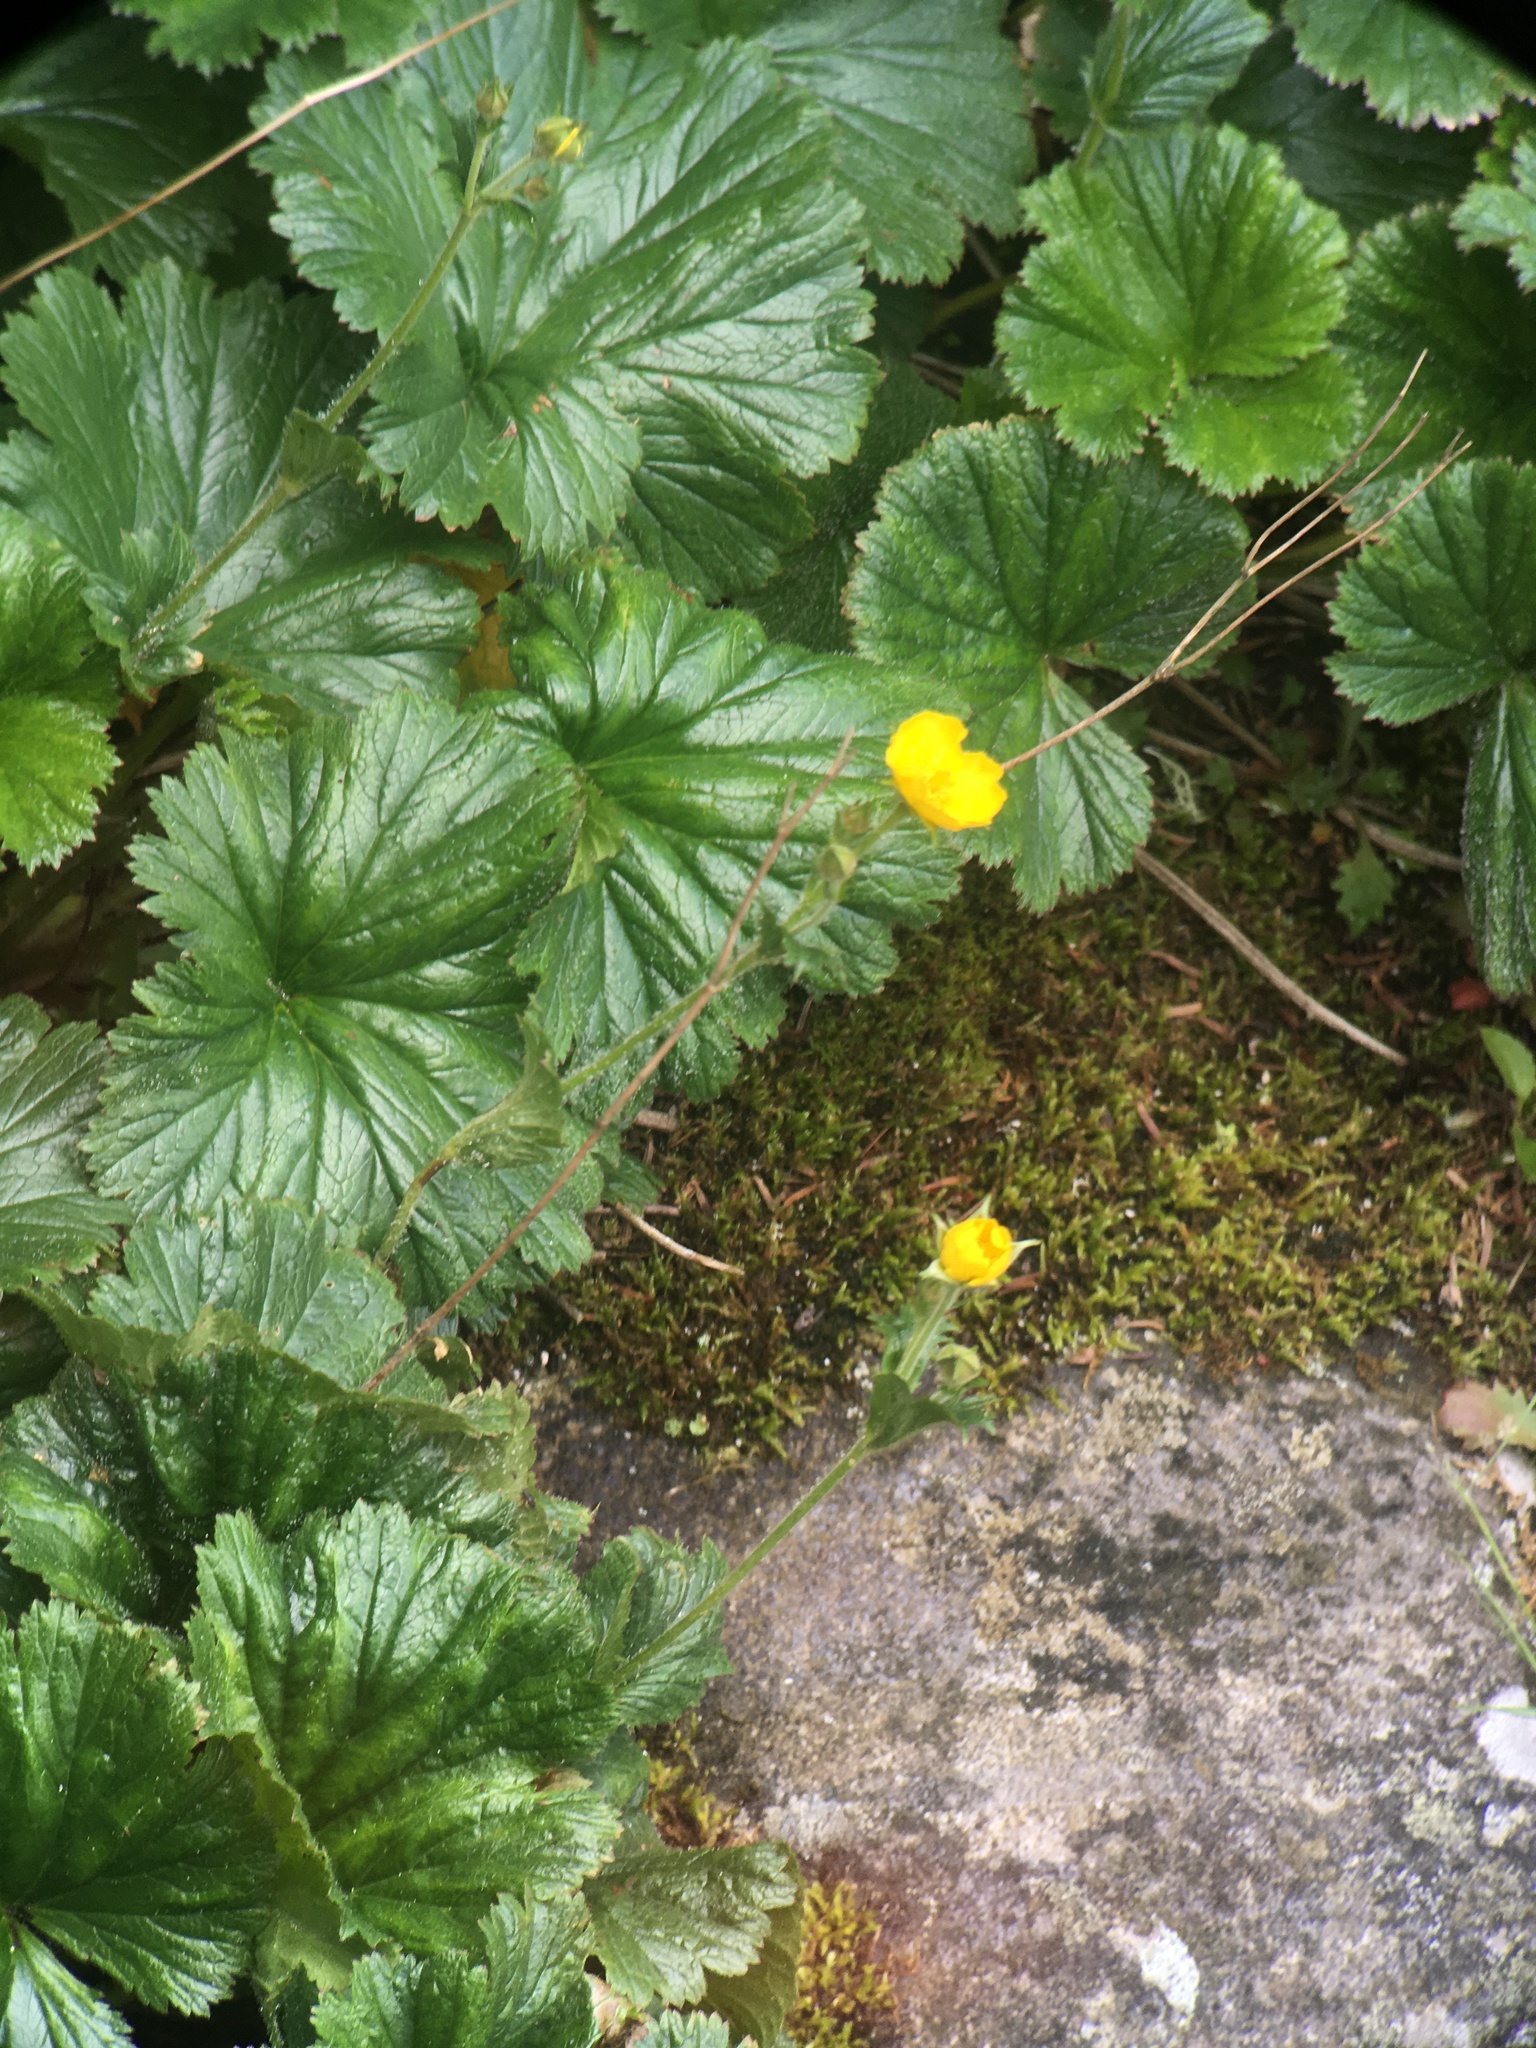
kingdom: Plantae
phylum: Tracheophyta
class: Magnoliopsida
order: Rosales
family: Rosaceae
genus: Geum
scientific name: Geum radiatum
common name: Spreaded avens
